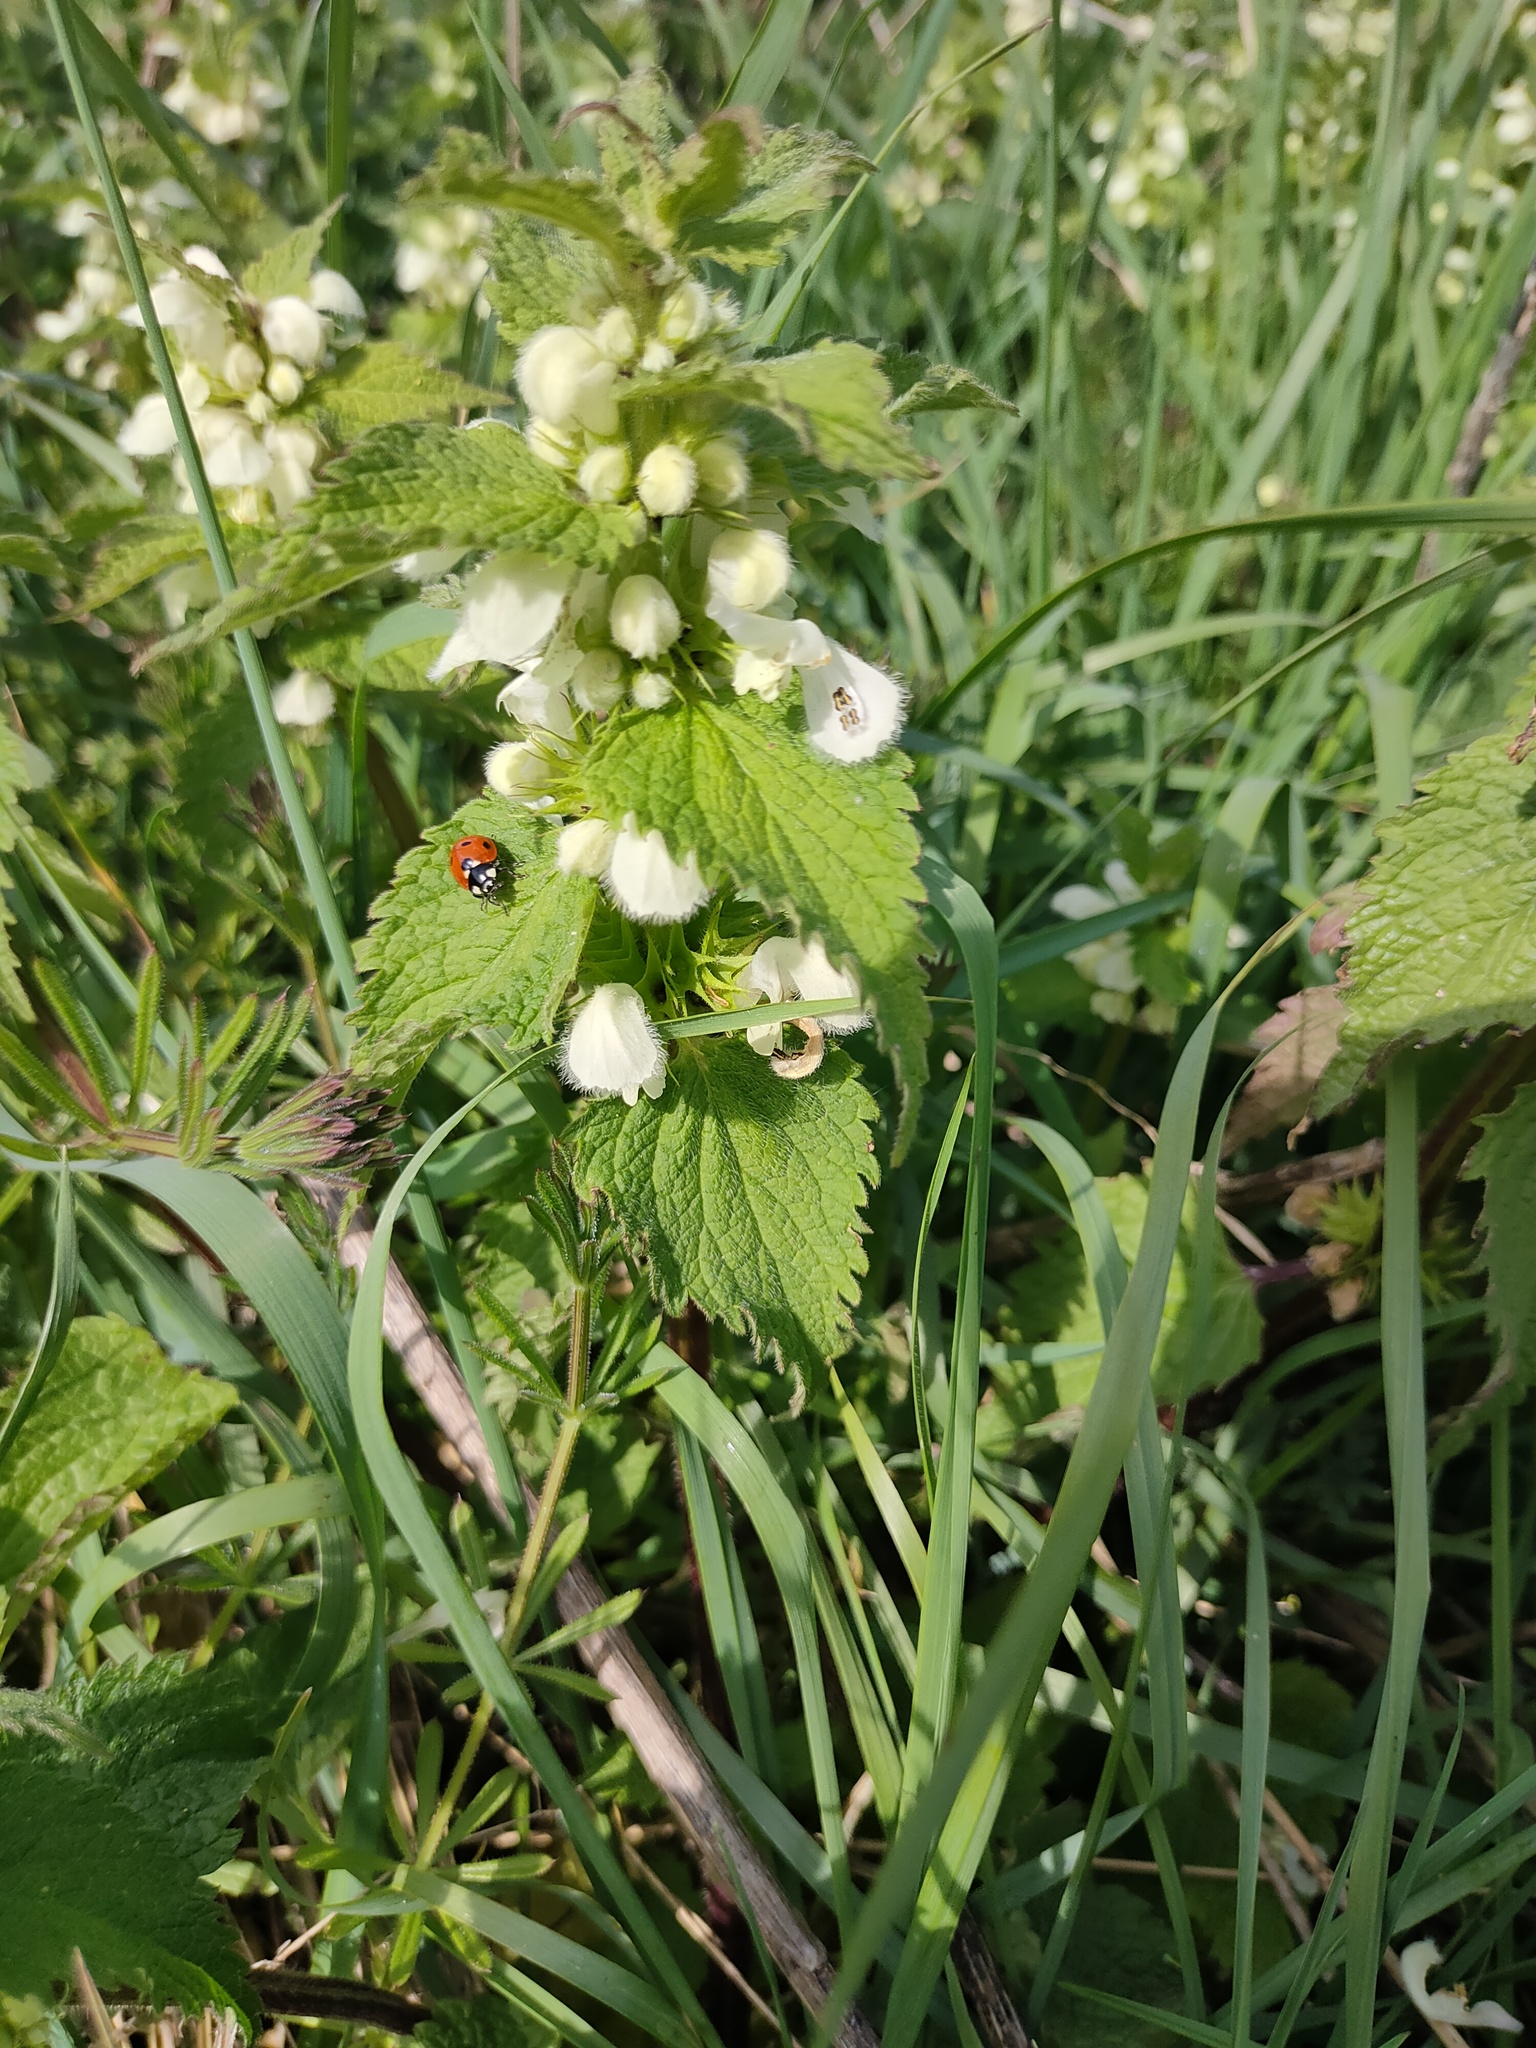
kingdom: Animalia
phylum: Arthropoda
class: Insecta
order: Coleoptera
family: Coccinellidae
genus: Coccinella
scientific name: Coccinella septempunctata
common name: Sevenspotted lady beetle
